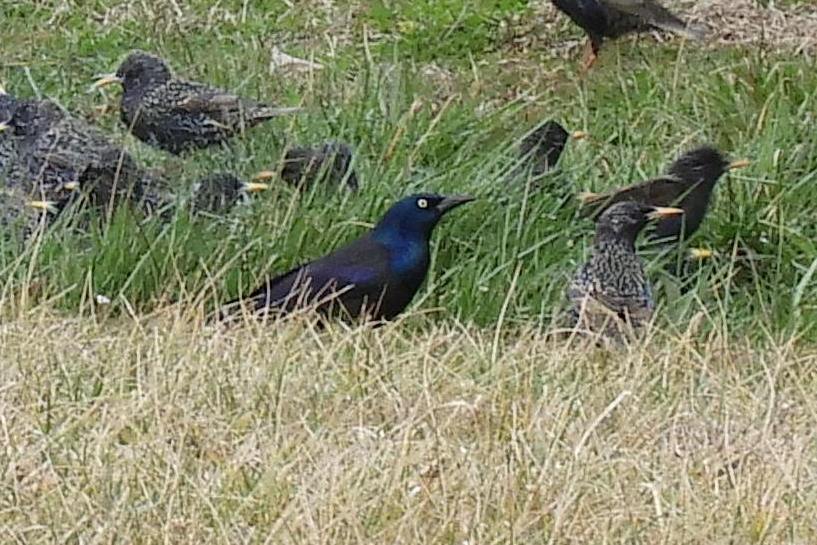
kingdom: Animalia
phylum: Chordata
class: Aves
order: Passeriformes
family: Icteridae
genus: Quiscalus
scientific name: Quiscalus quiscula
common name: Common grackle
